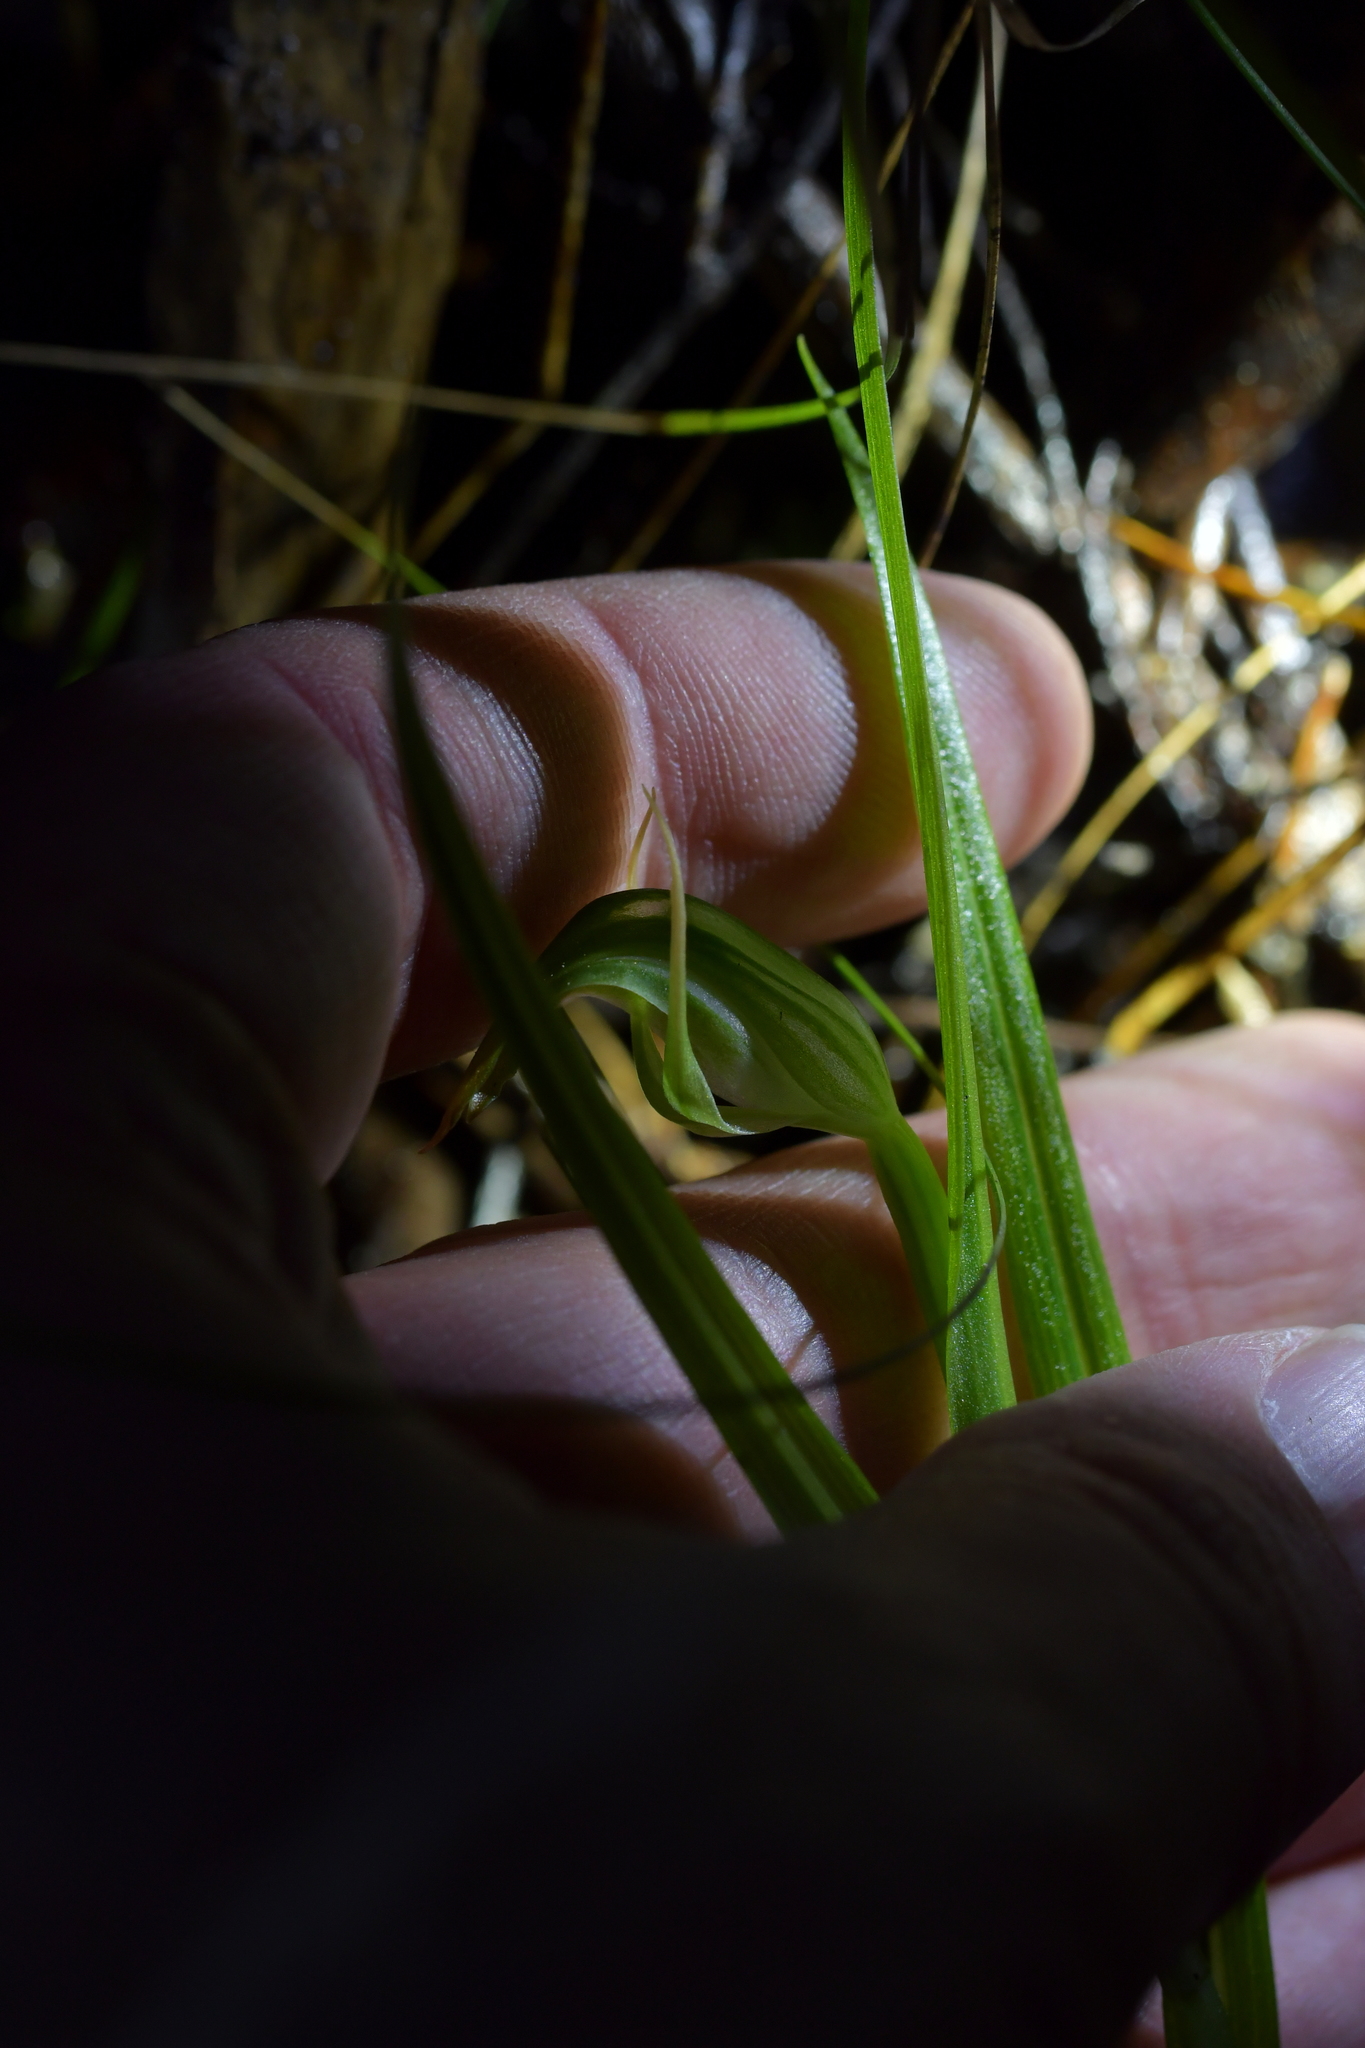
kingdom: Plantae
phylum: Tracheophyta
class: Liliopsida
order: Asparagales
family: Orchidaceae
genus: Pterostylis
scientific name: Pterostylis graminea
